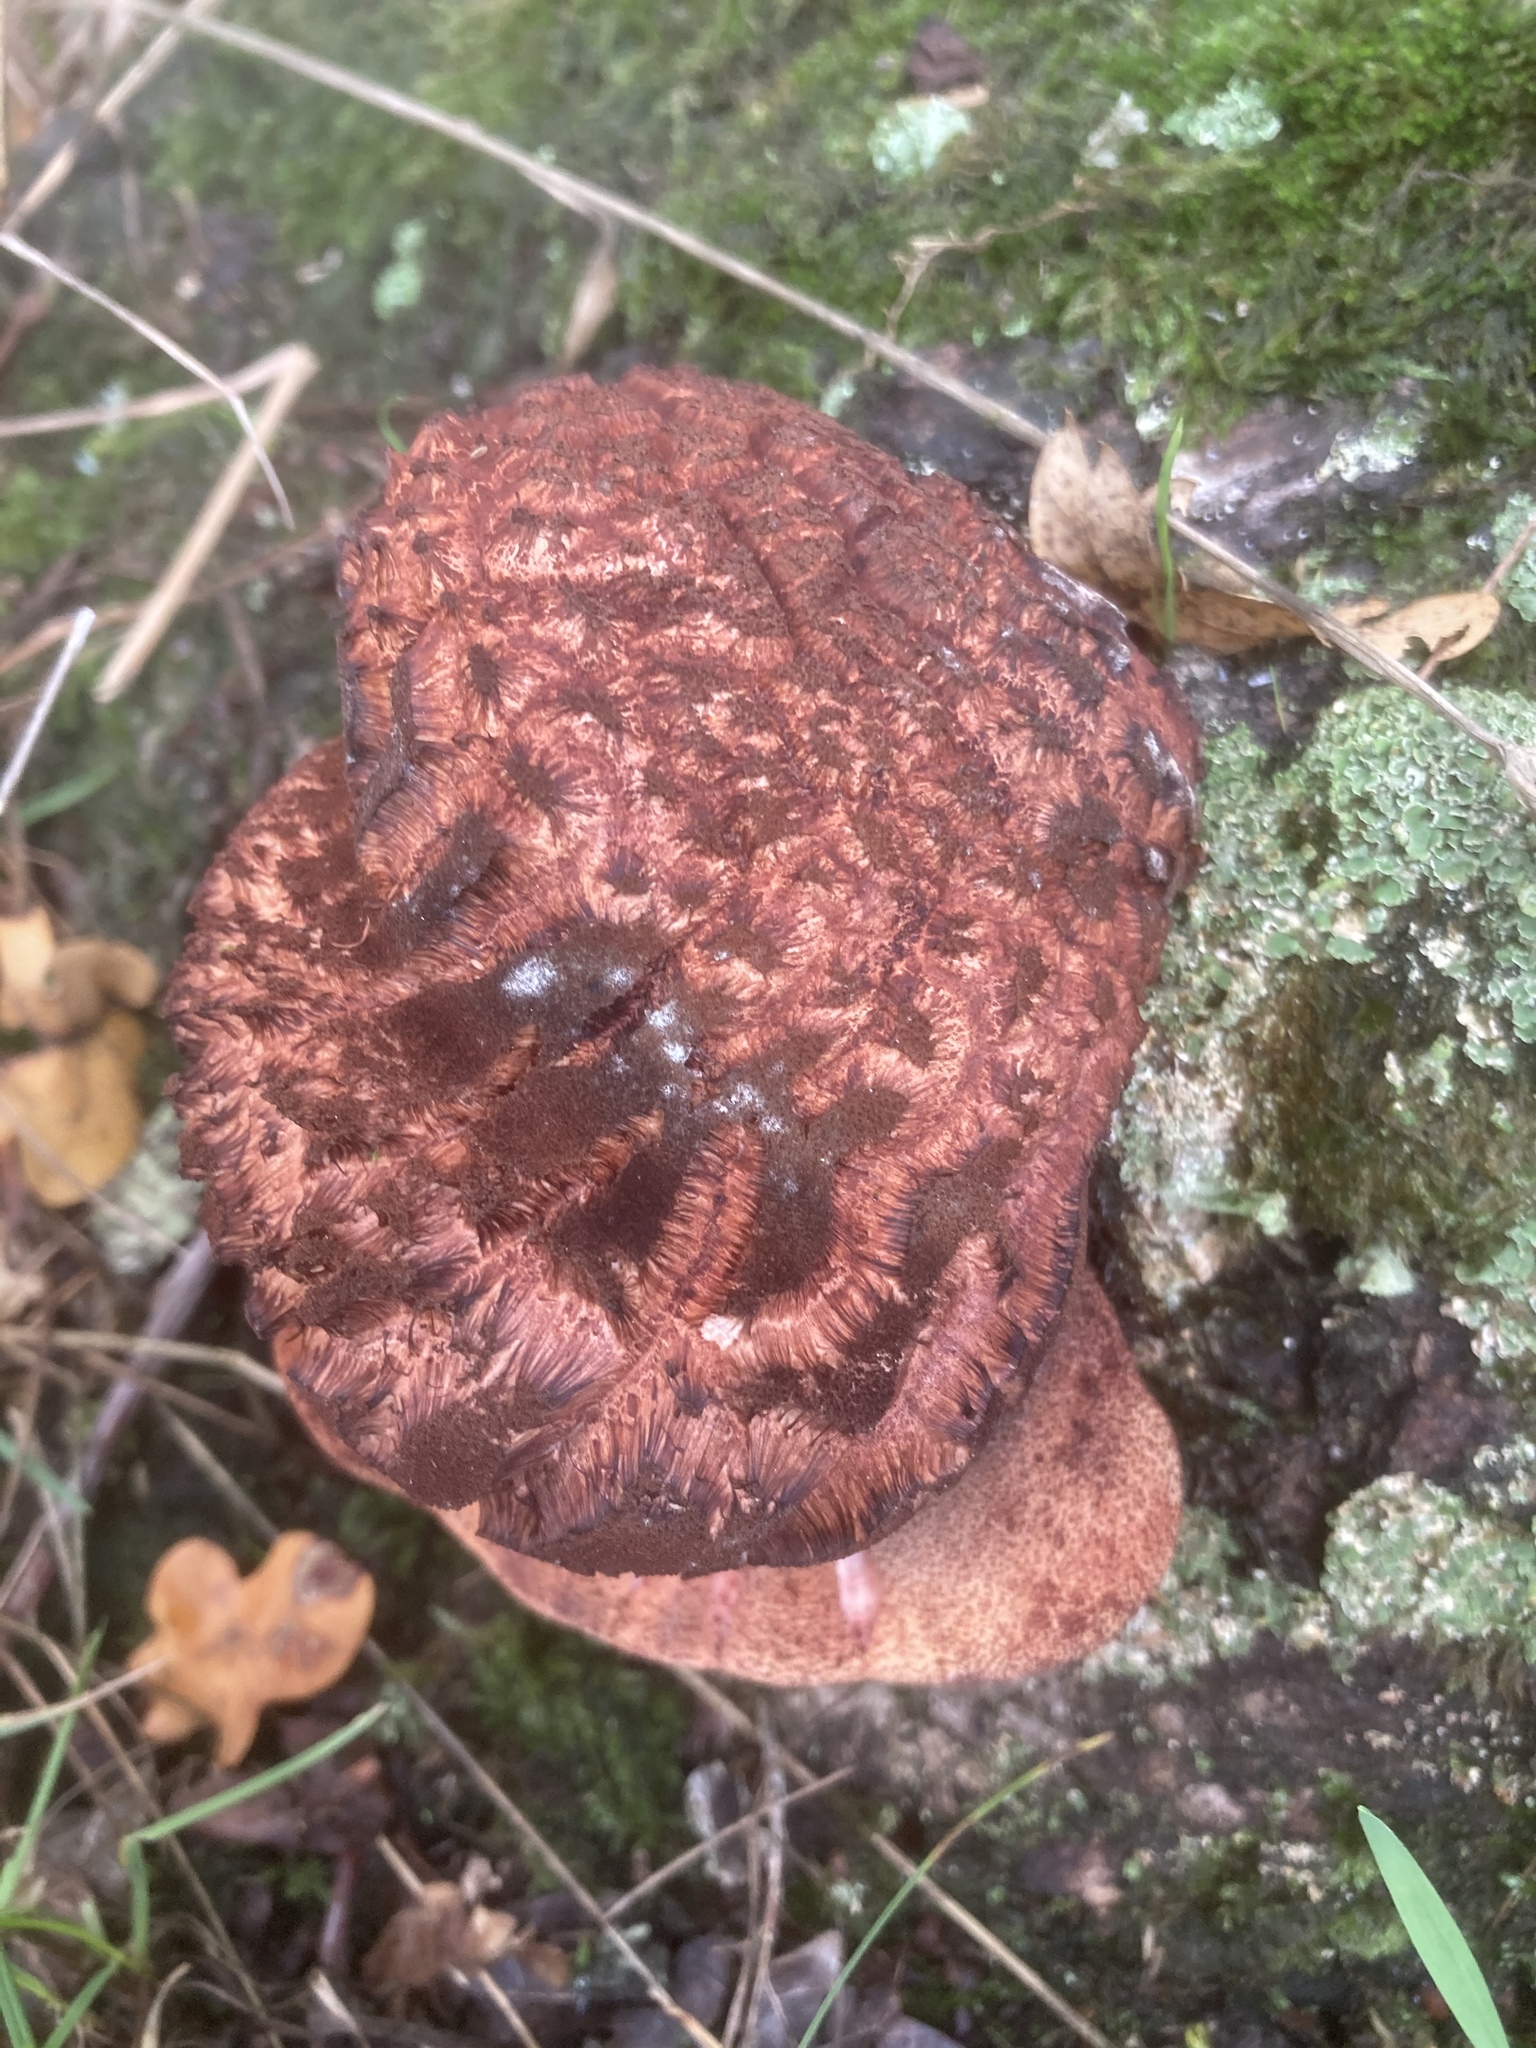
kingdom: Fungi
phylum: Basidiomycota
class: Agaricomycetes
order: Agaricales
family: Fistulinaceae
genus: Fistulina
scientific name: Fistulina hepatica
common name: Beef-steak fungus
